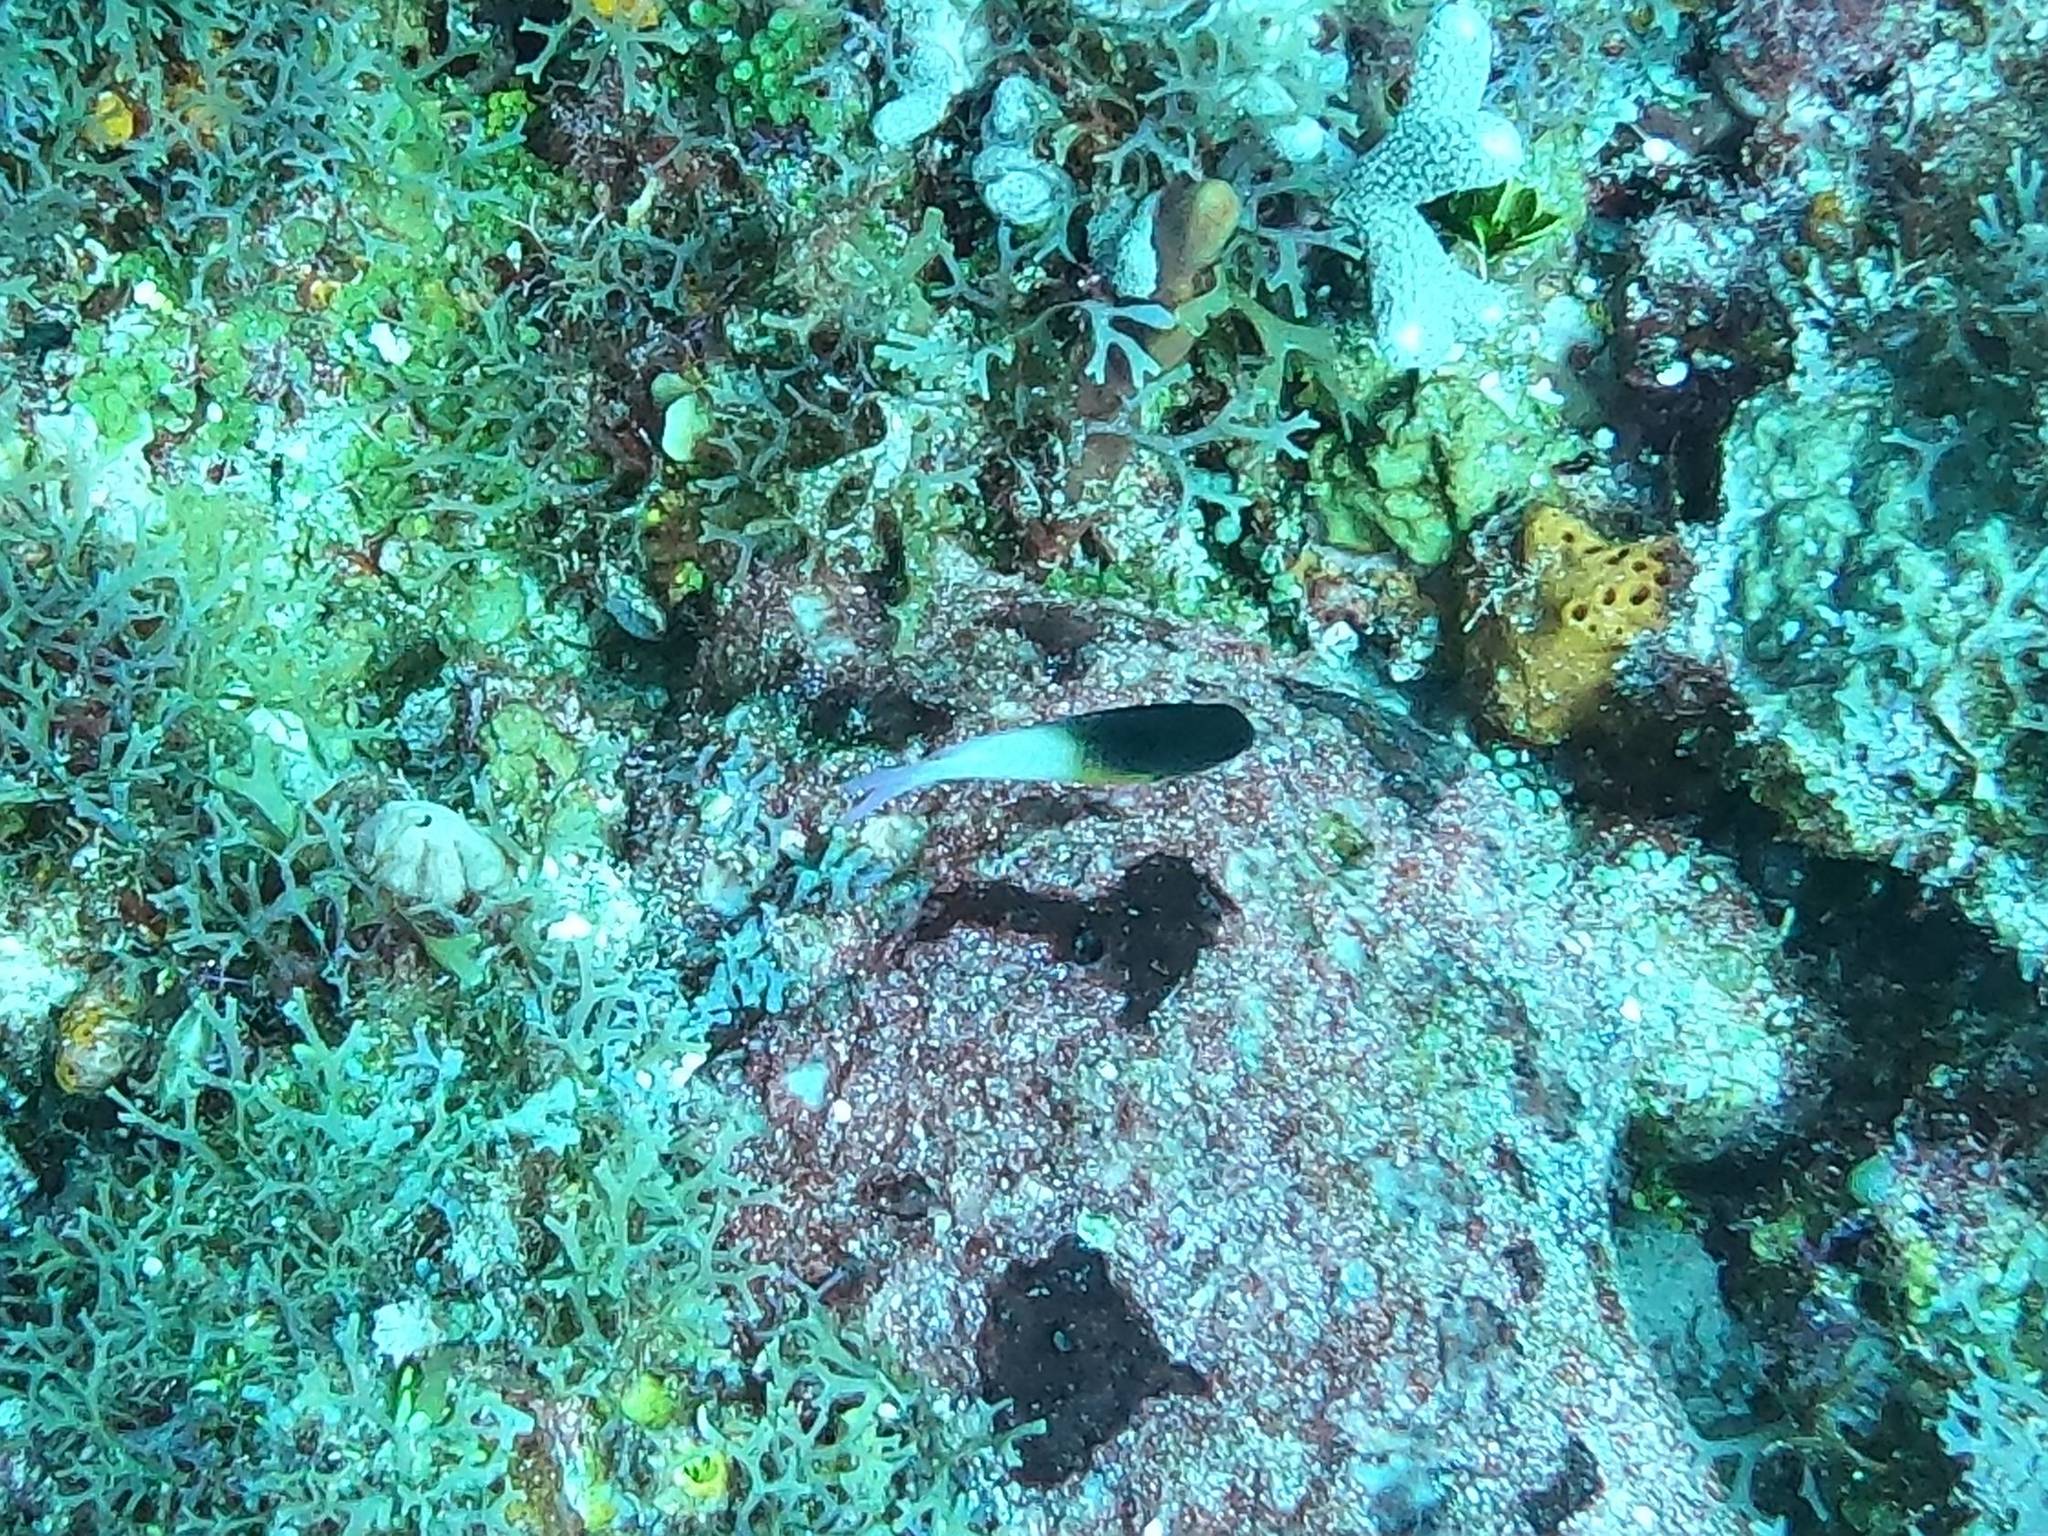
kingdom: Animalia
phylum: Chordata
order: Perciformes
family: Pomacentridae
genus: Stegastes
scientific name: Stegastes partitus
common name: Bicolor damselfish
